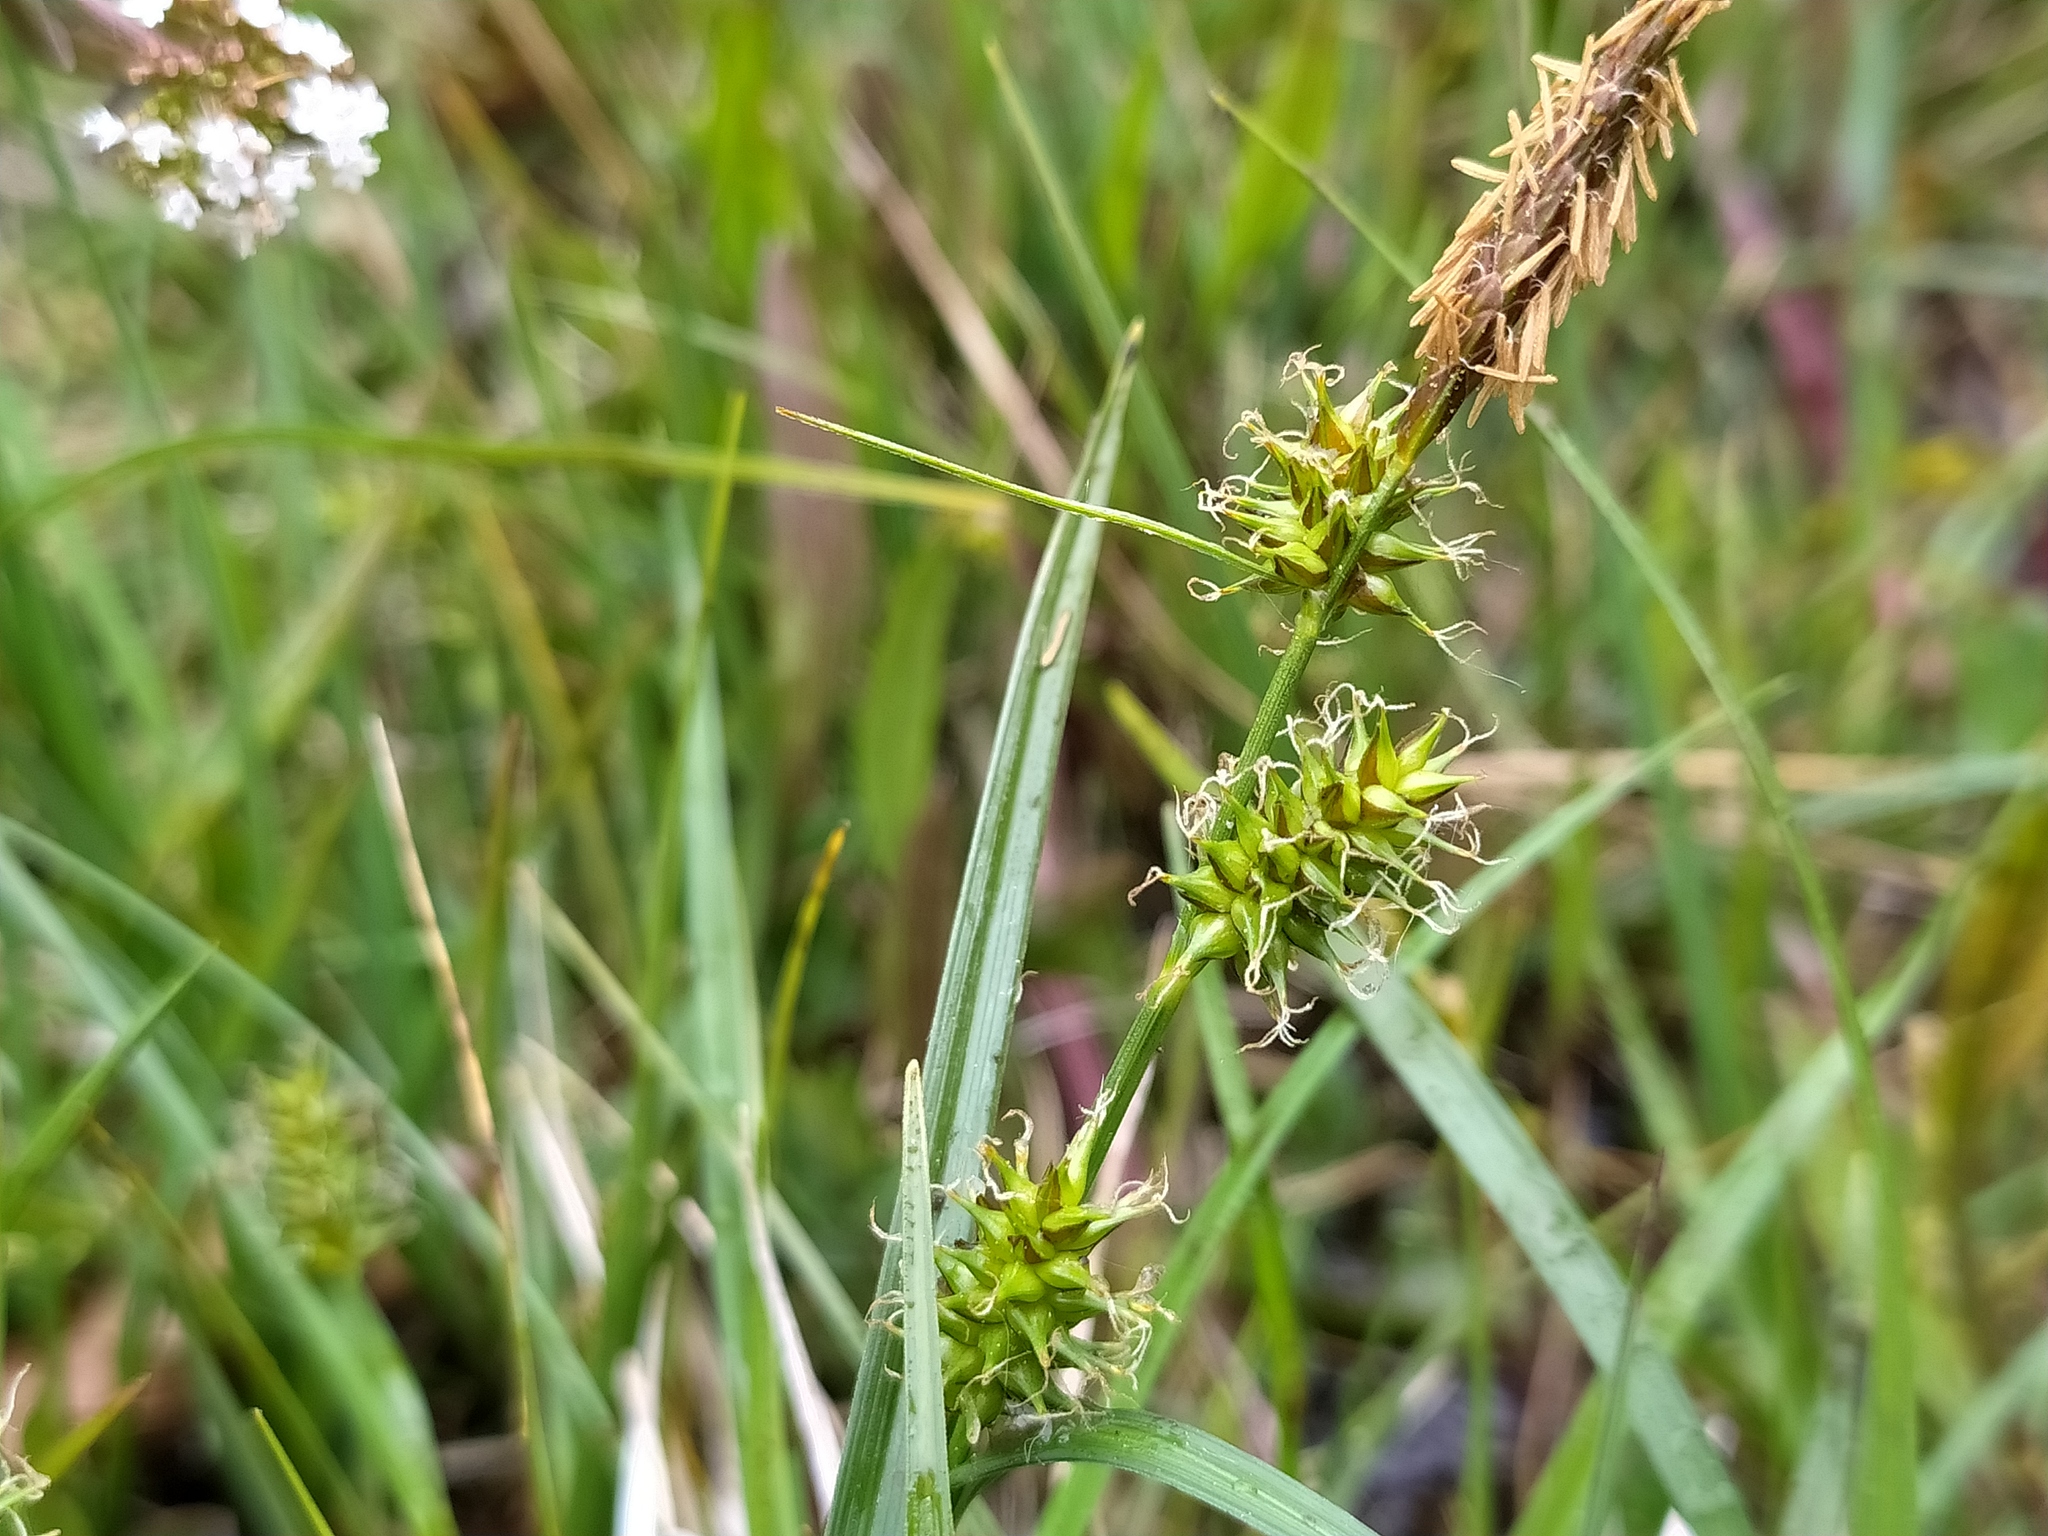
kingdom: Plantae
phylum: Tracheophyta
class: Liliopsida
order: Poales
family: Cyperaceae
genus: Carex
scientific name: Carex demissa
